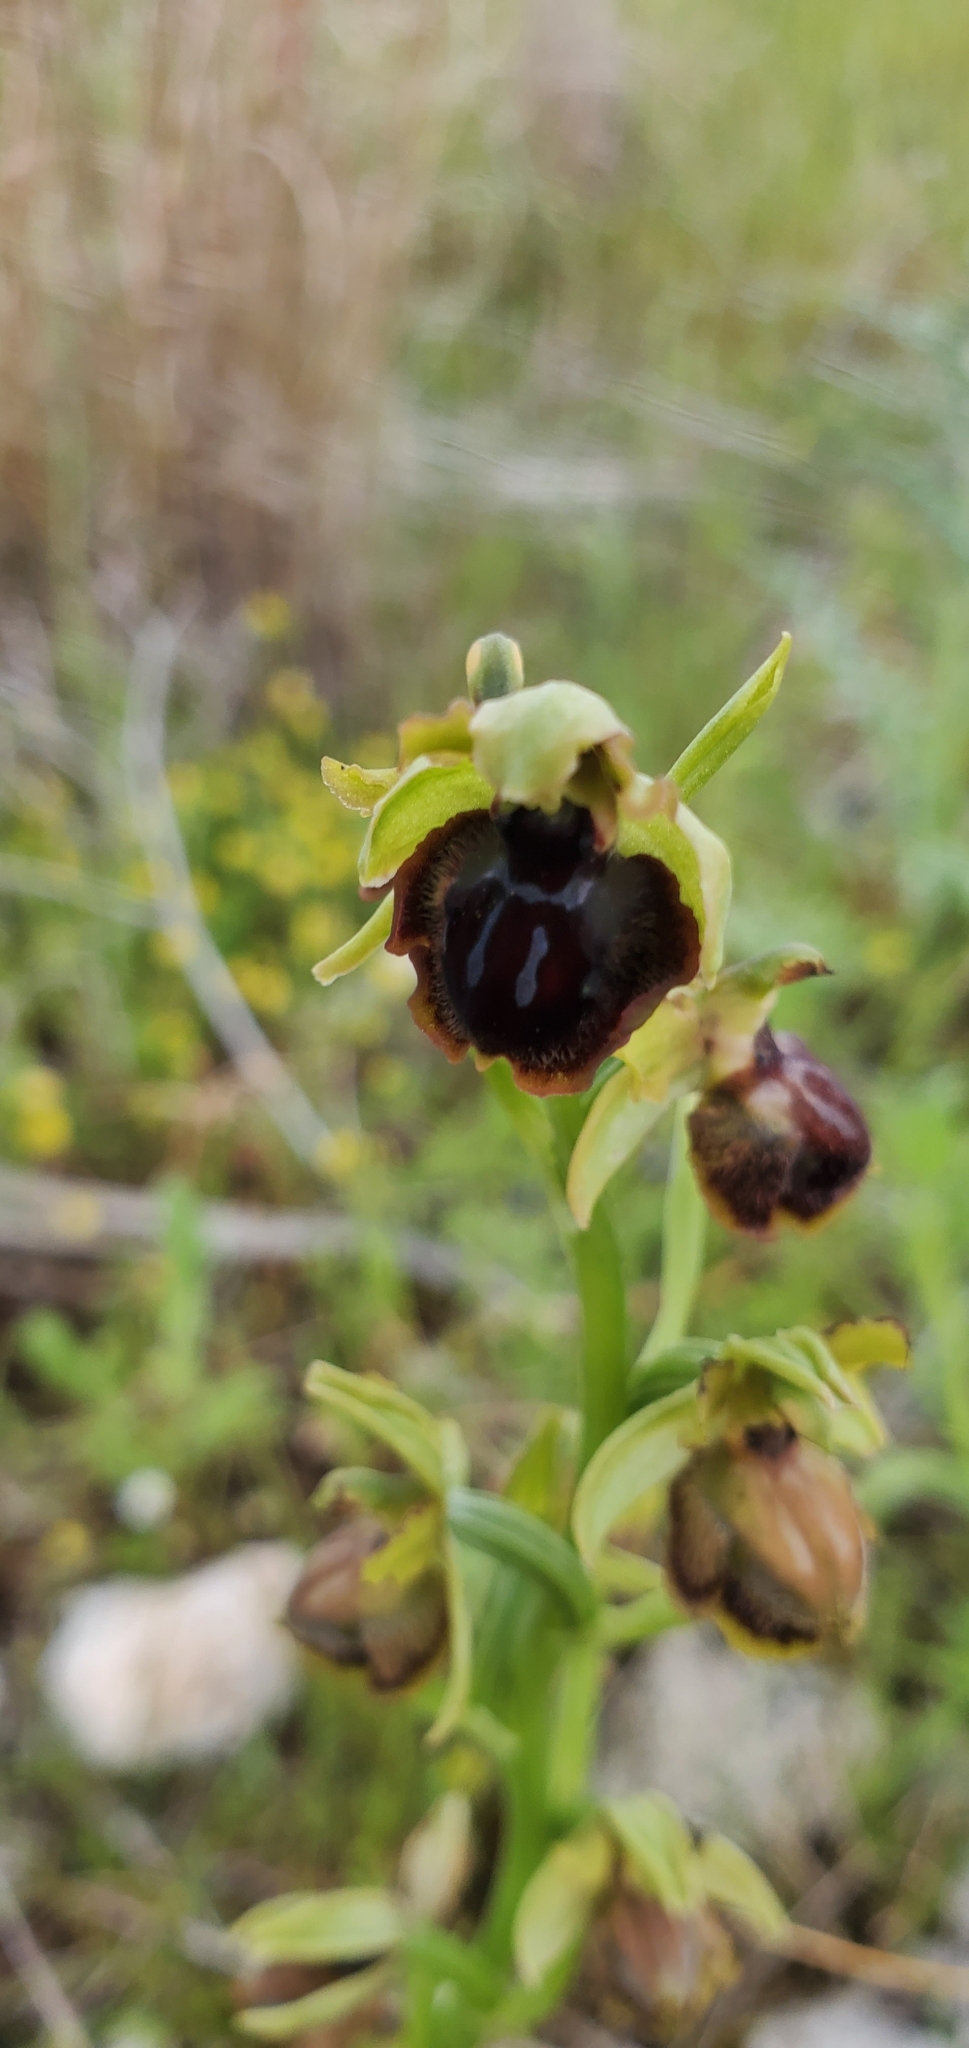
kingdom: Plantae
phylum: Tracheophyta
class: Liliopsida
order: Asparagales
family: Orchidaceae
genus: Ophrys
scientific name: Ophrys sphegodes
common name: Early spider-orchid
